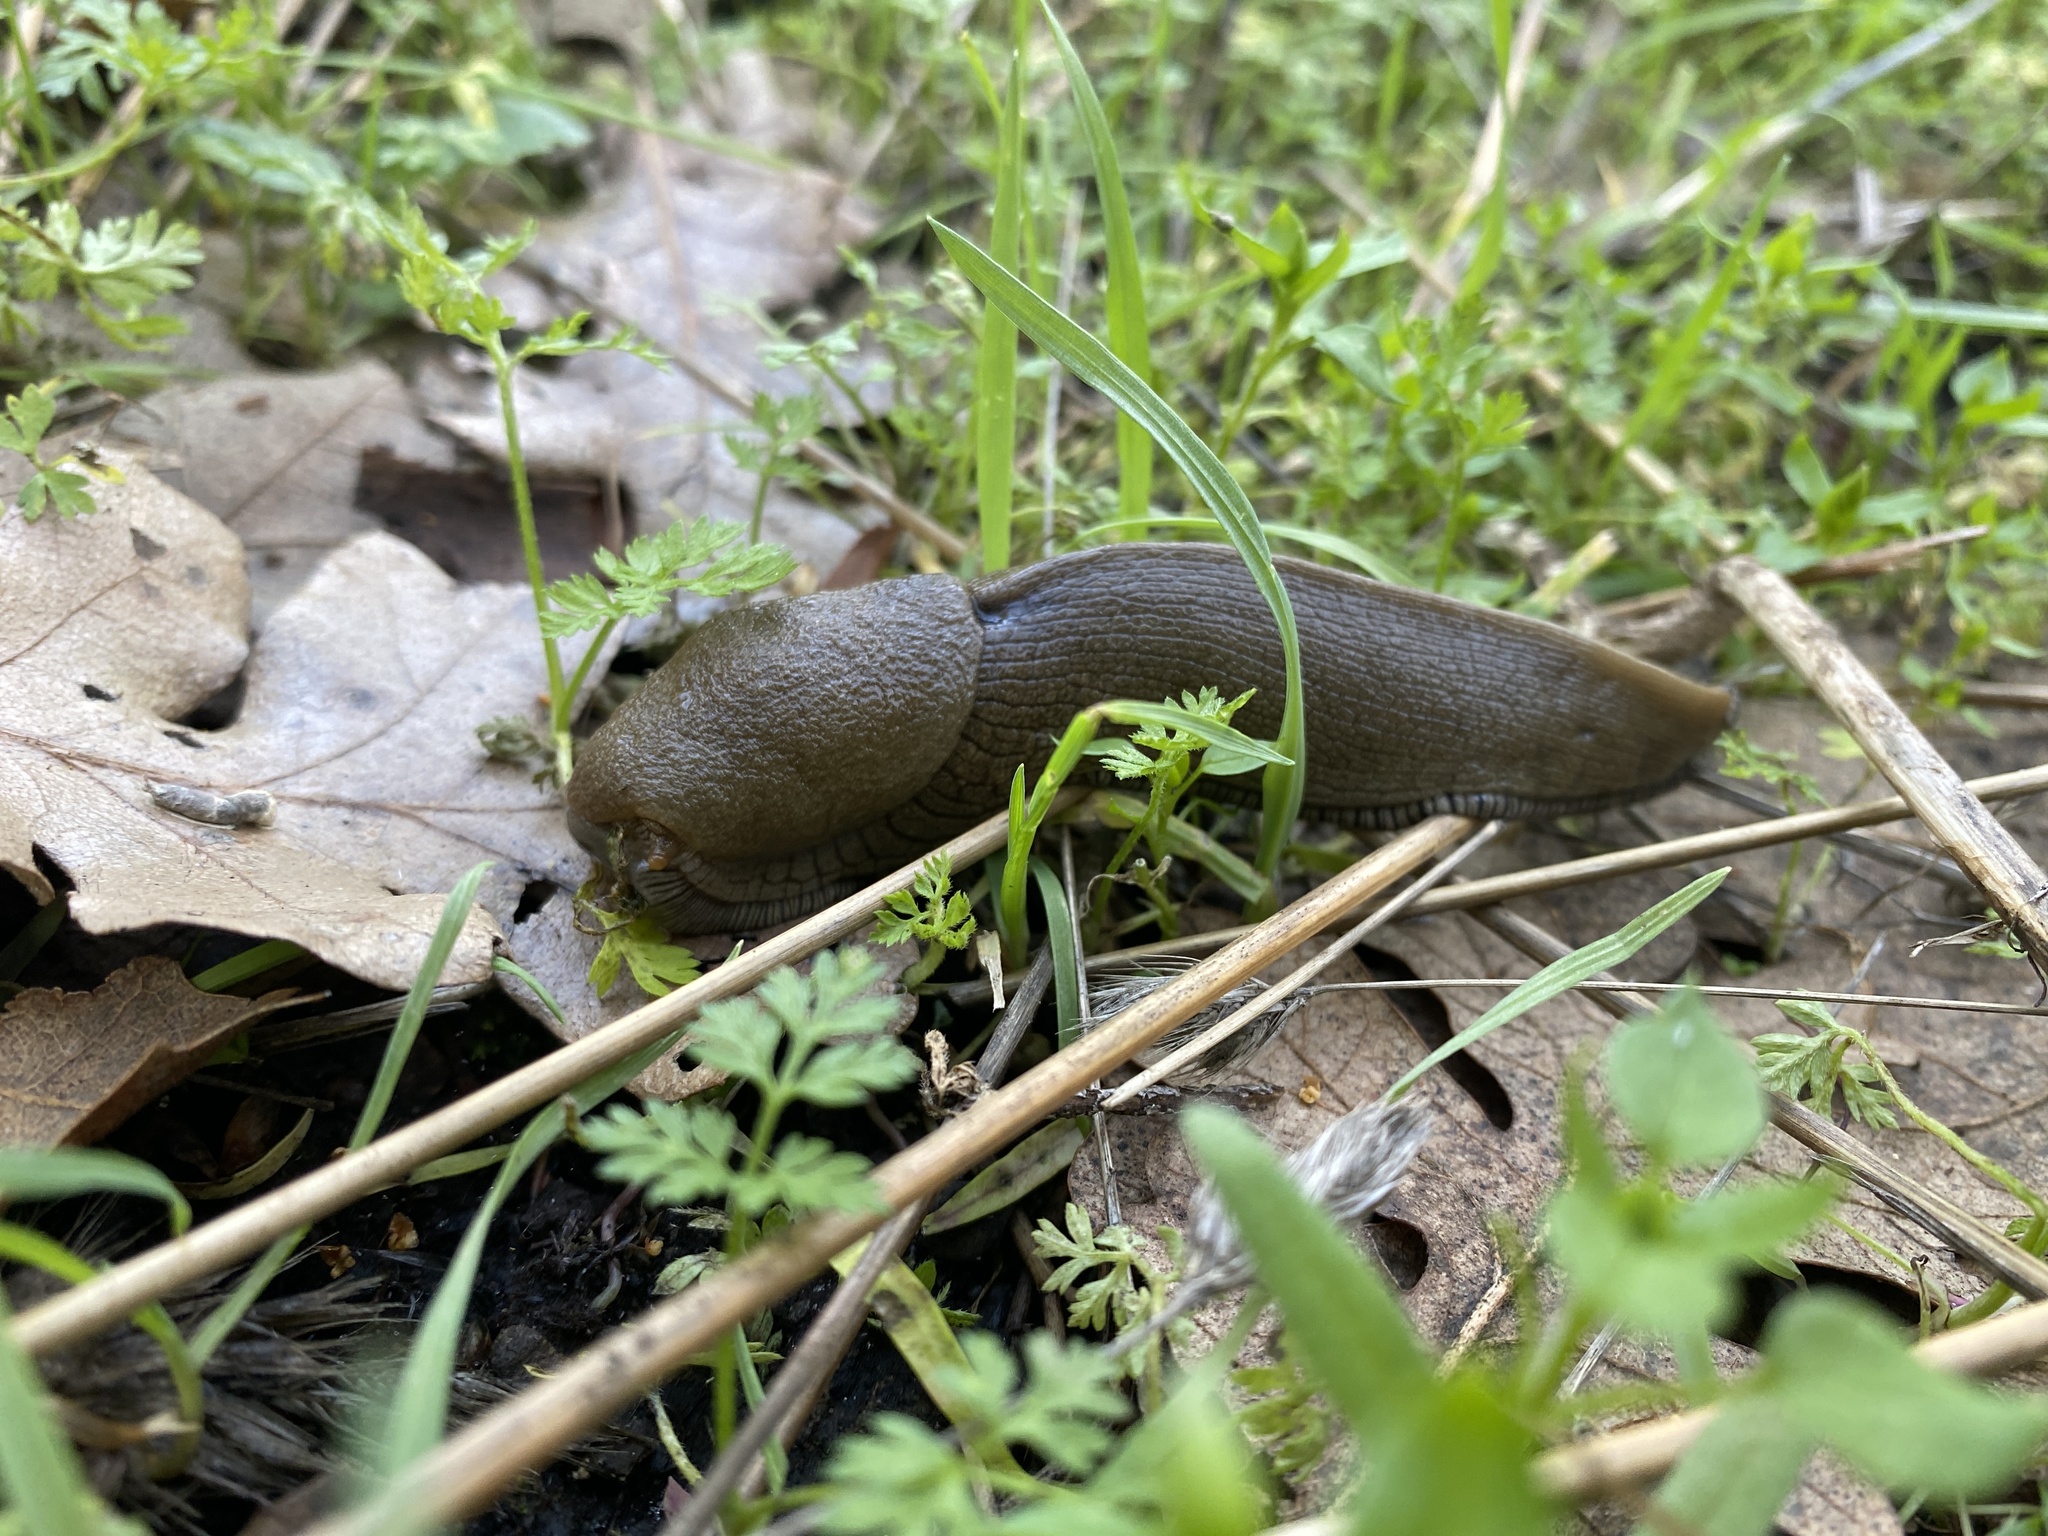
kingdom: Animalia
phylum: Mollusca
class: Gastropoda
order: Stylommatophora
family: Ariolimacidae
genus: Ariolimax
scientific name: Ariolimax buttoni
